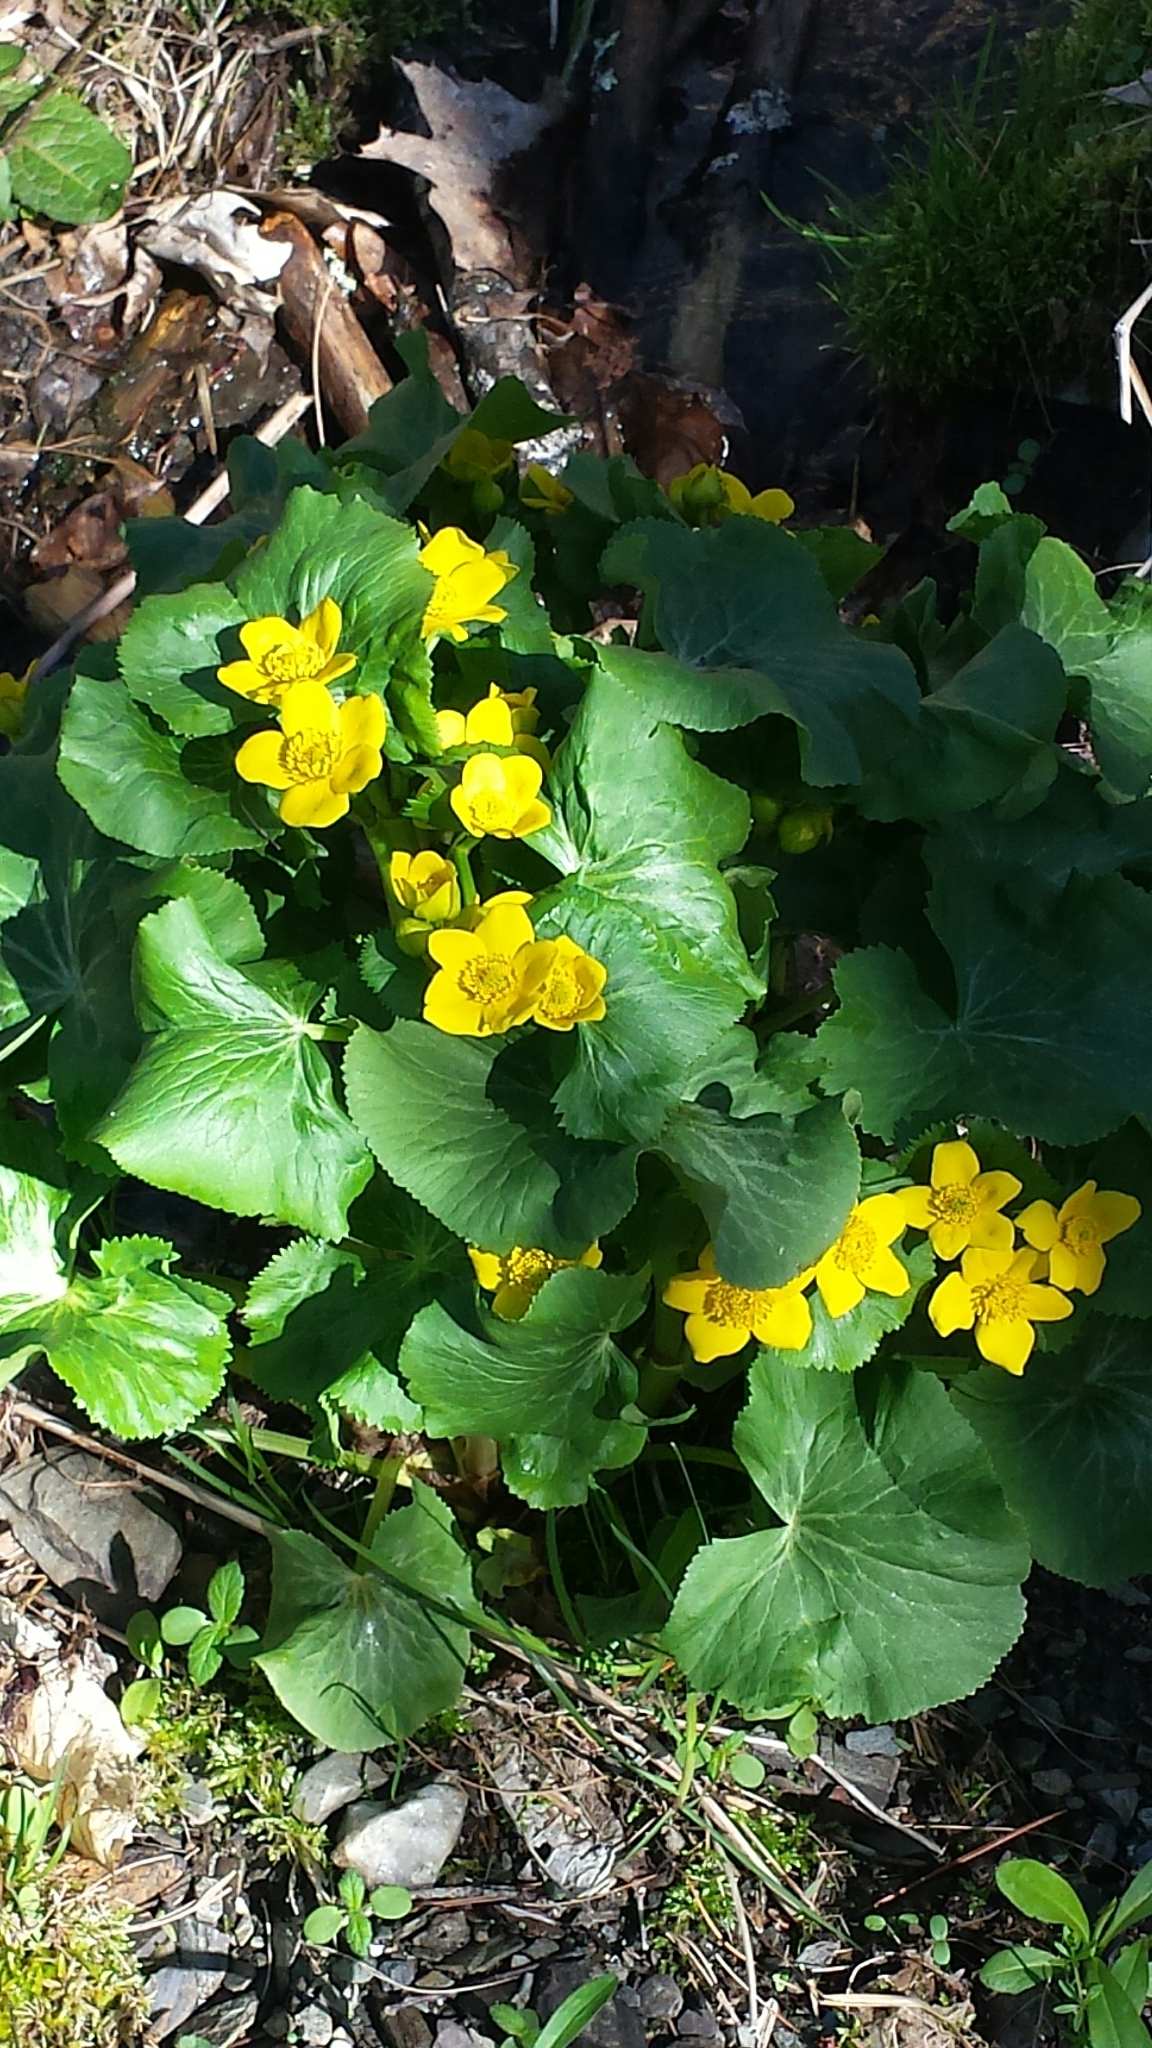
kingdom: Plantae
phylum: Tracheophyta
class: Magnoliopsida
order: Ranunculales
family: Ranunculaceae
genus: Caltha
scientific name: Caltha palustris
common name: Marsh marigold
